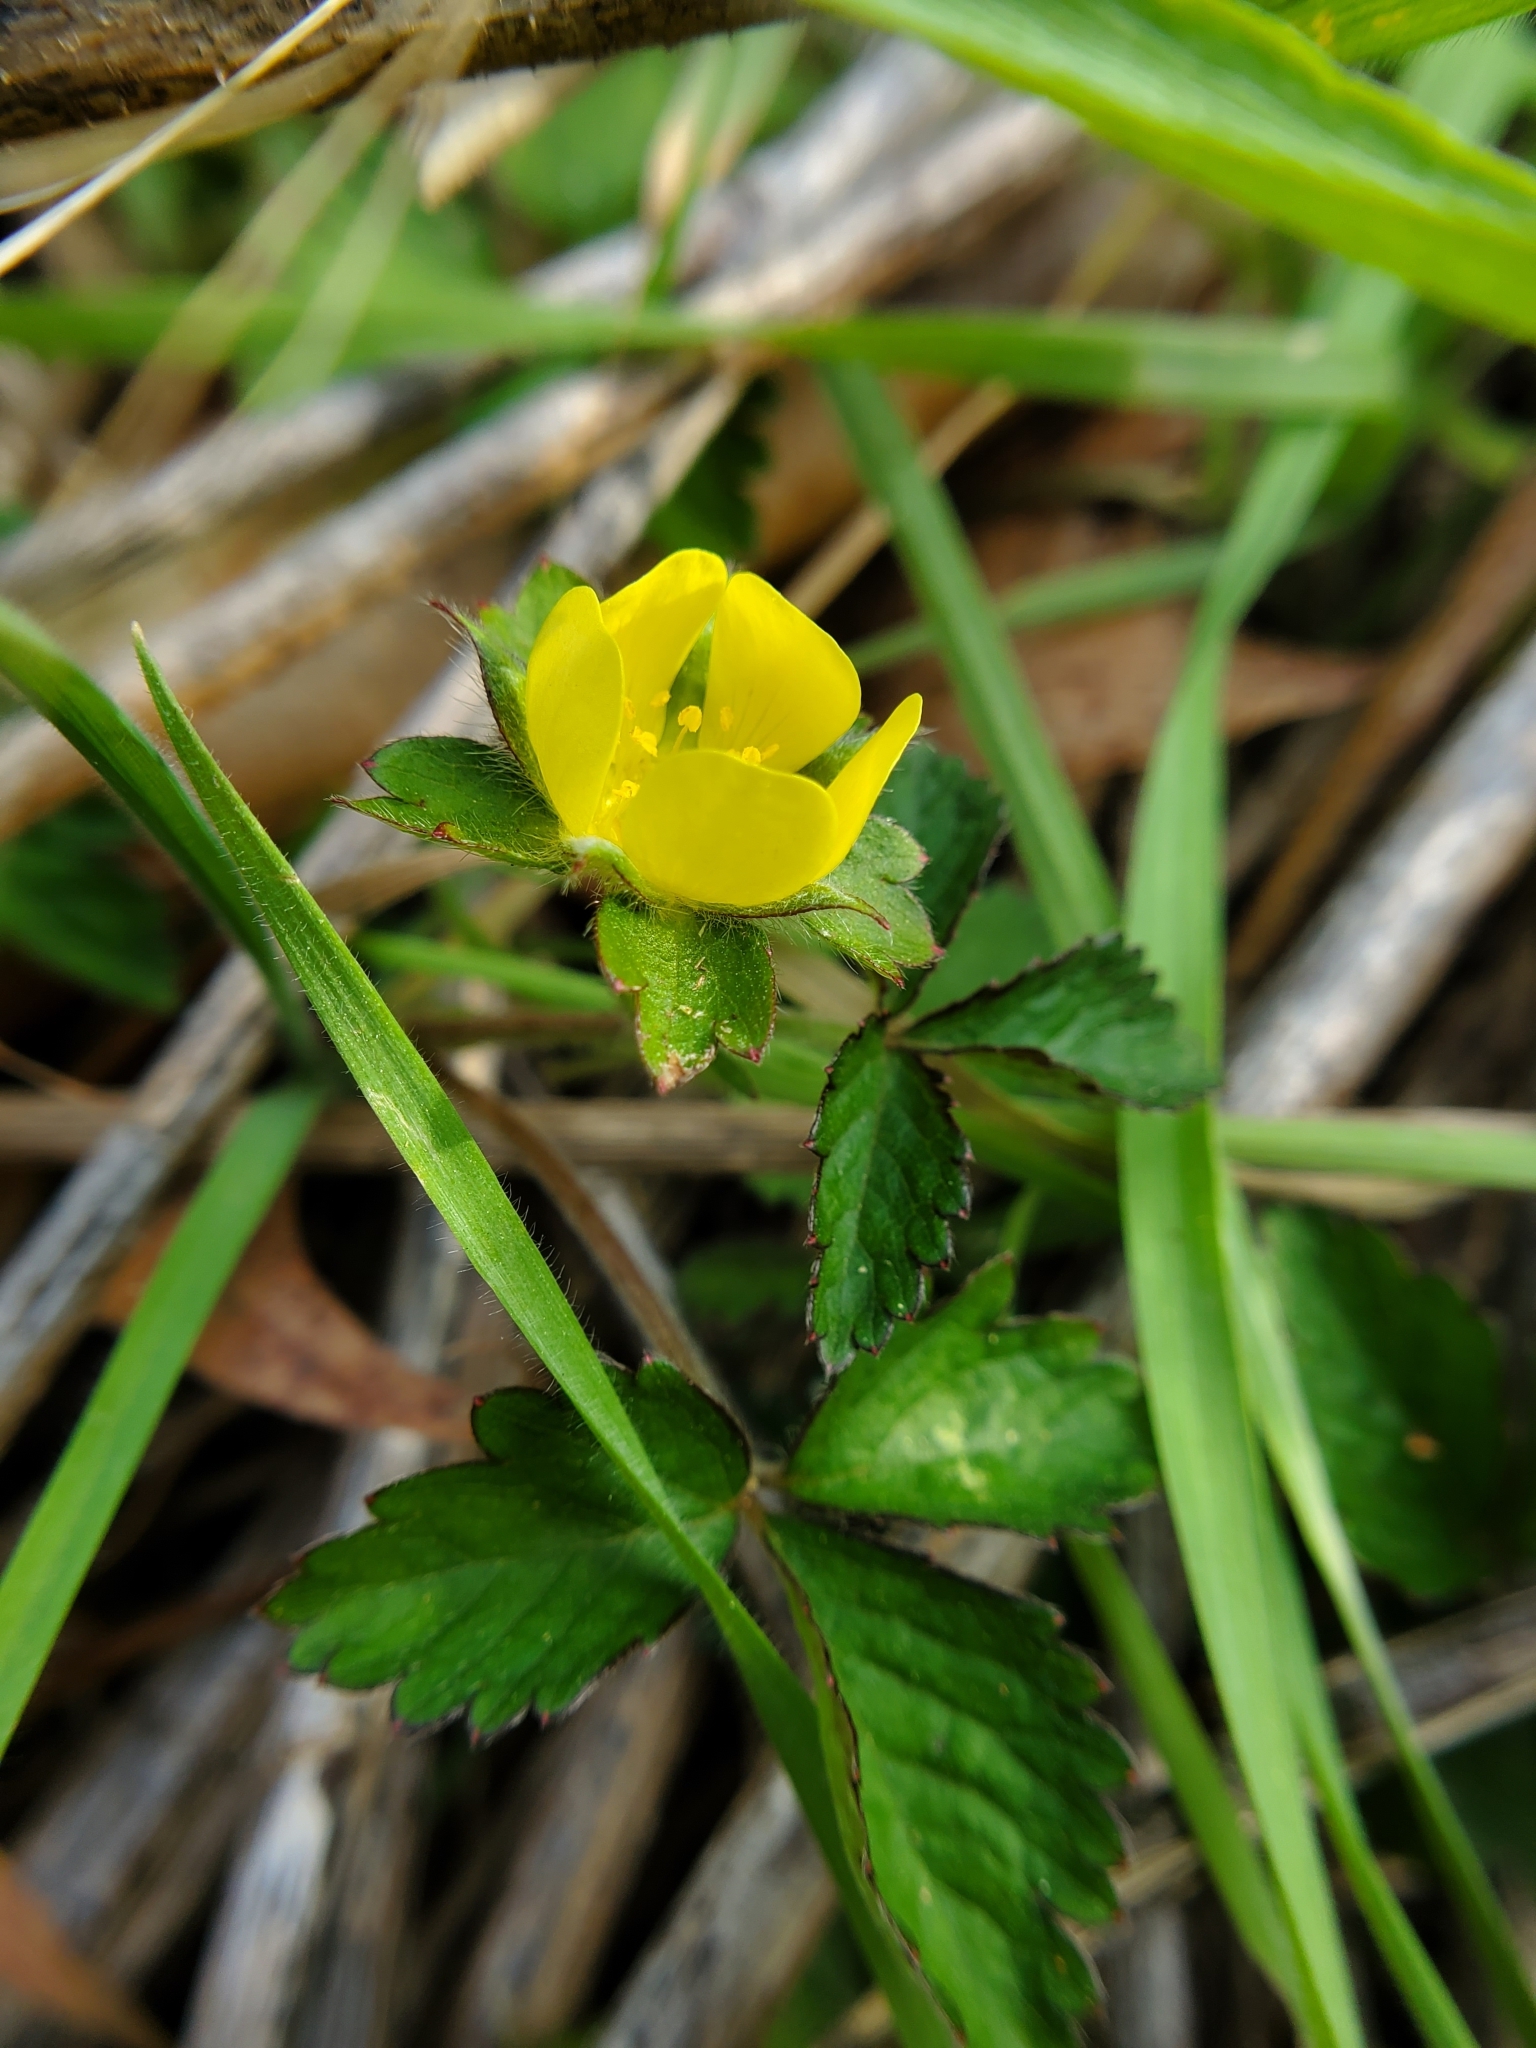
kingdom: Plantae
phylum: Tracheophyta
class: Magnoliopsida
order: Rosales
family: Rosaceae
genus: Potentilla
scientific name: Potentilla indica
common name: Yellow-flowered strawberry
